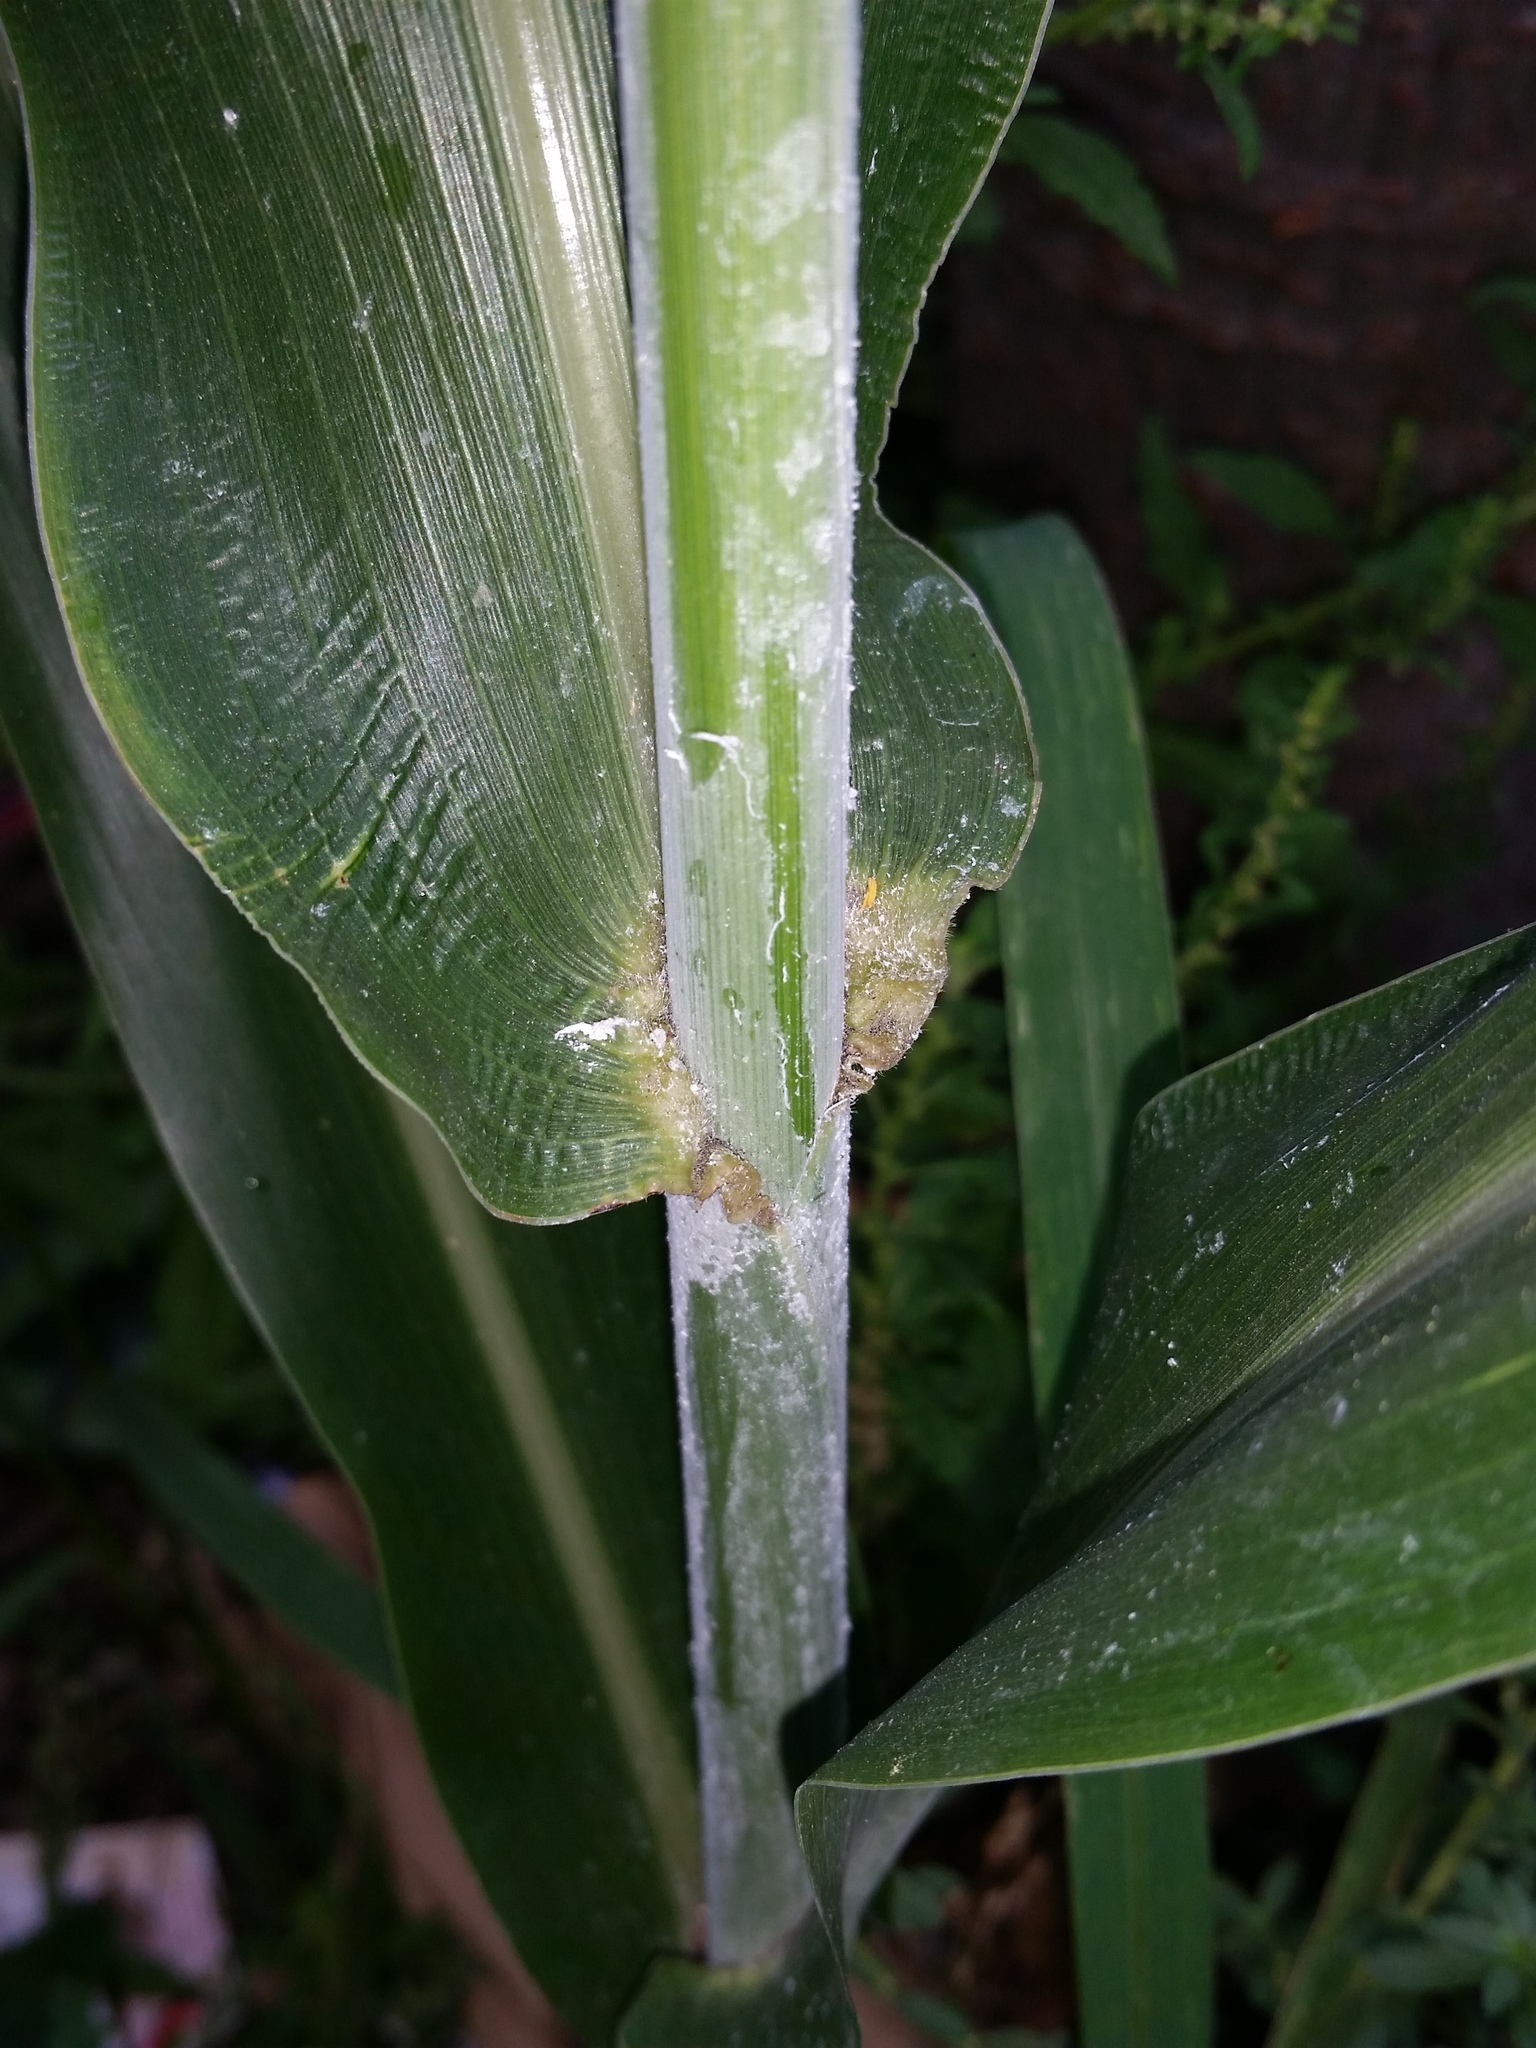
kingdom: Plantae
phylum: Tracheophyta
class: Liliopsida
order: Poales
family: Poaceae
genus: Sorghum
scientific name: Sorghum bicolor
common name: Sorghum
